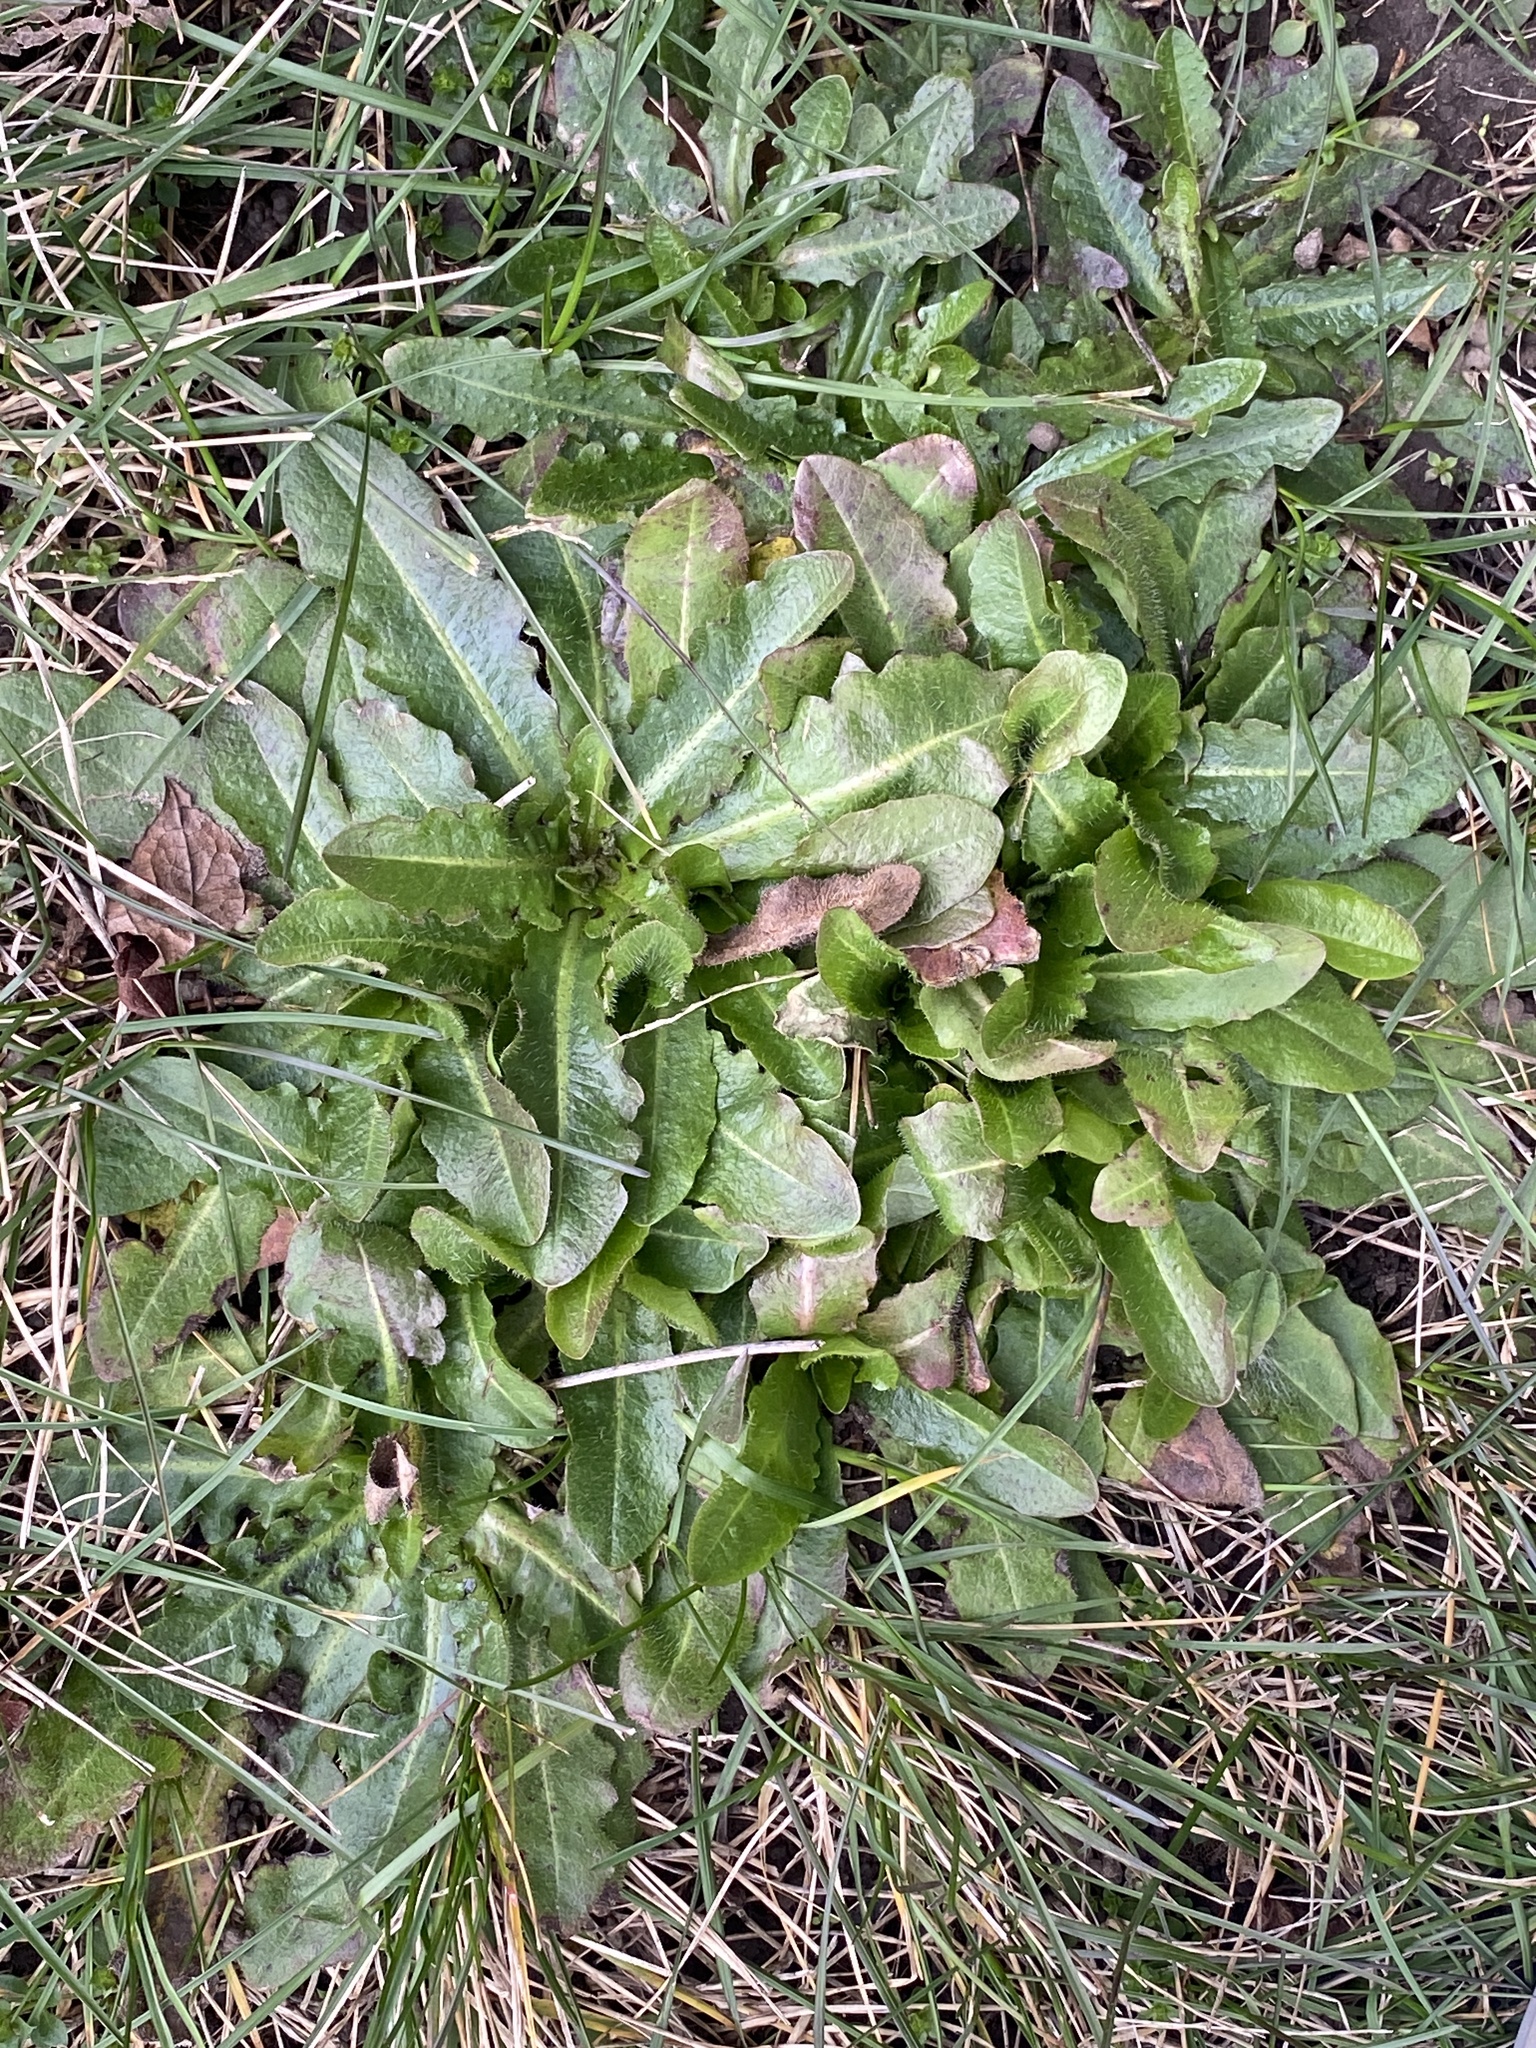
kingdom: Plantae
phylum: Tracheophyta
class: Magnoliopsida
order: Asterales
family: Asteraceae
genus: Hypochaeris
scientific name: Hypochaeris radicata
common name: Flatweed
